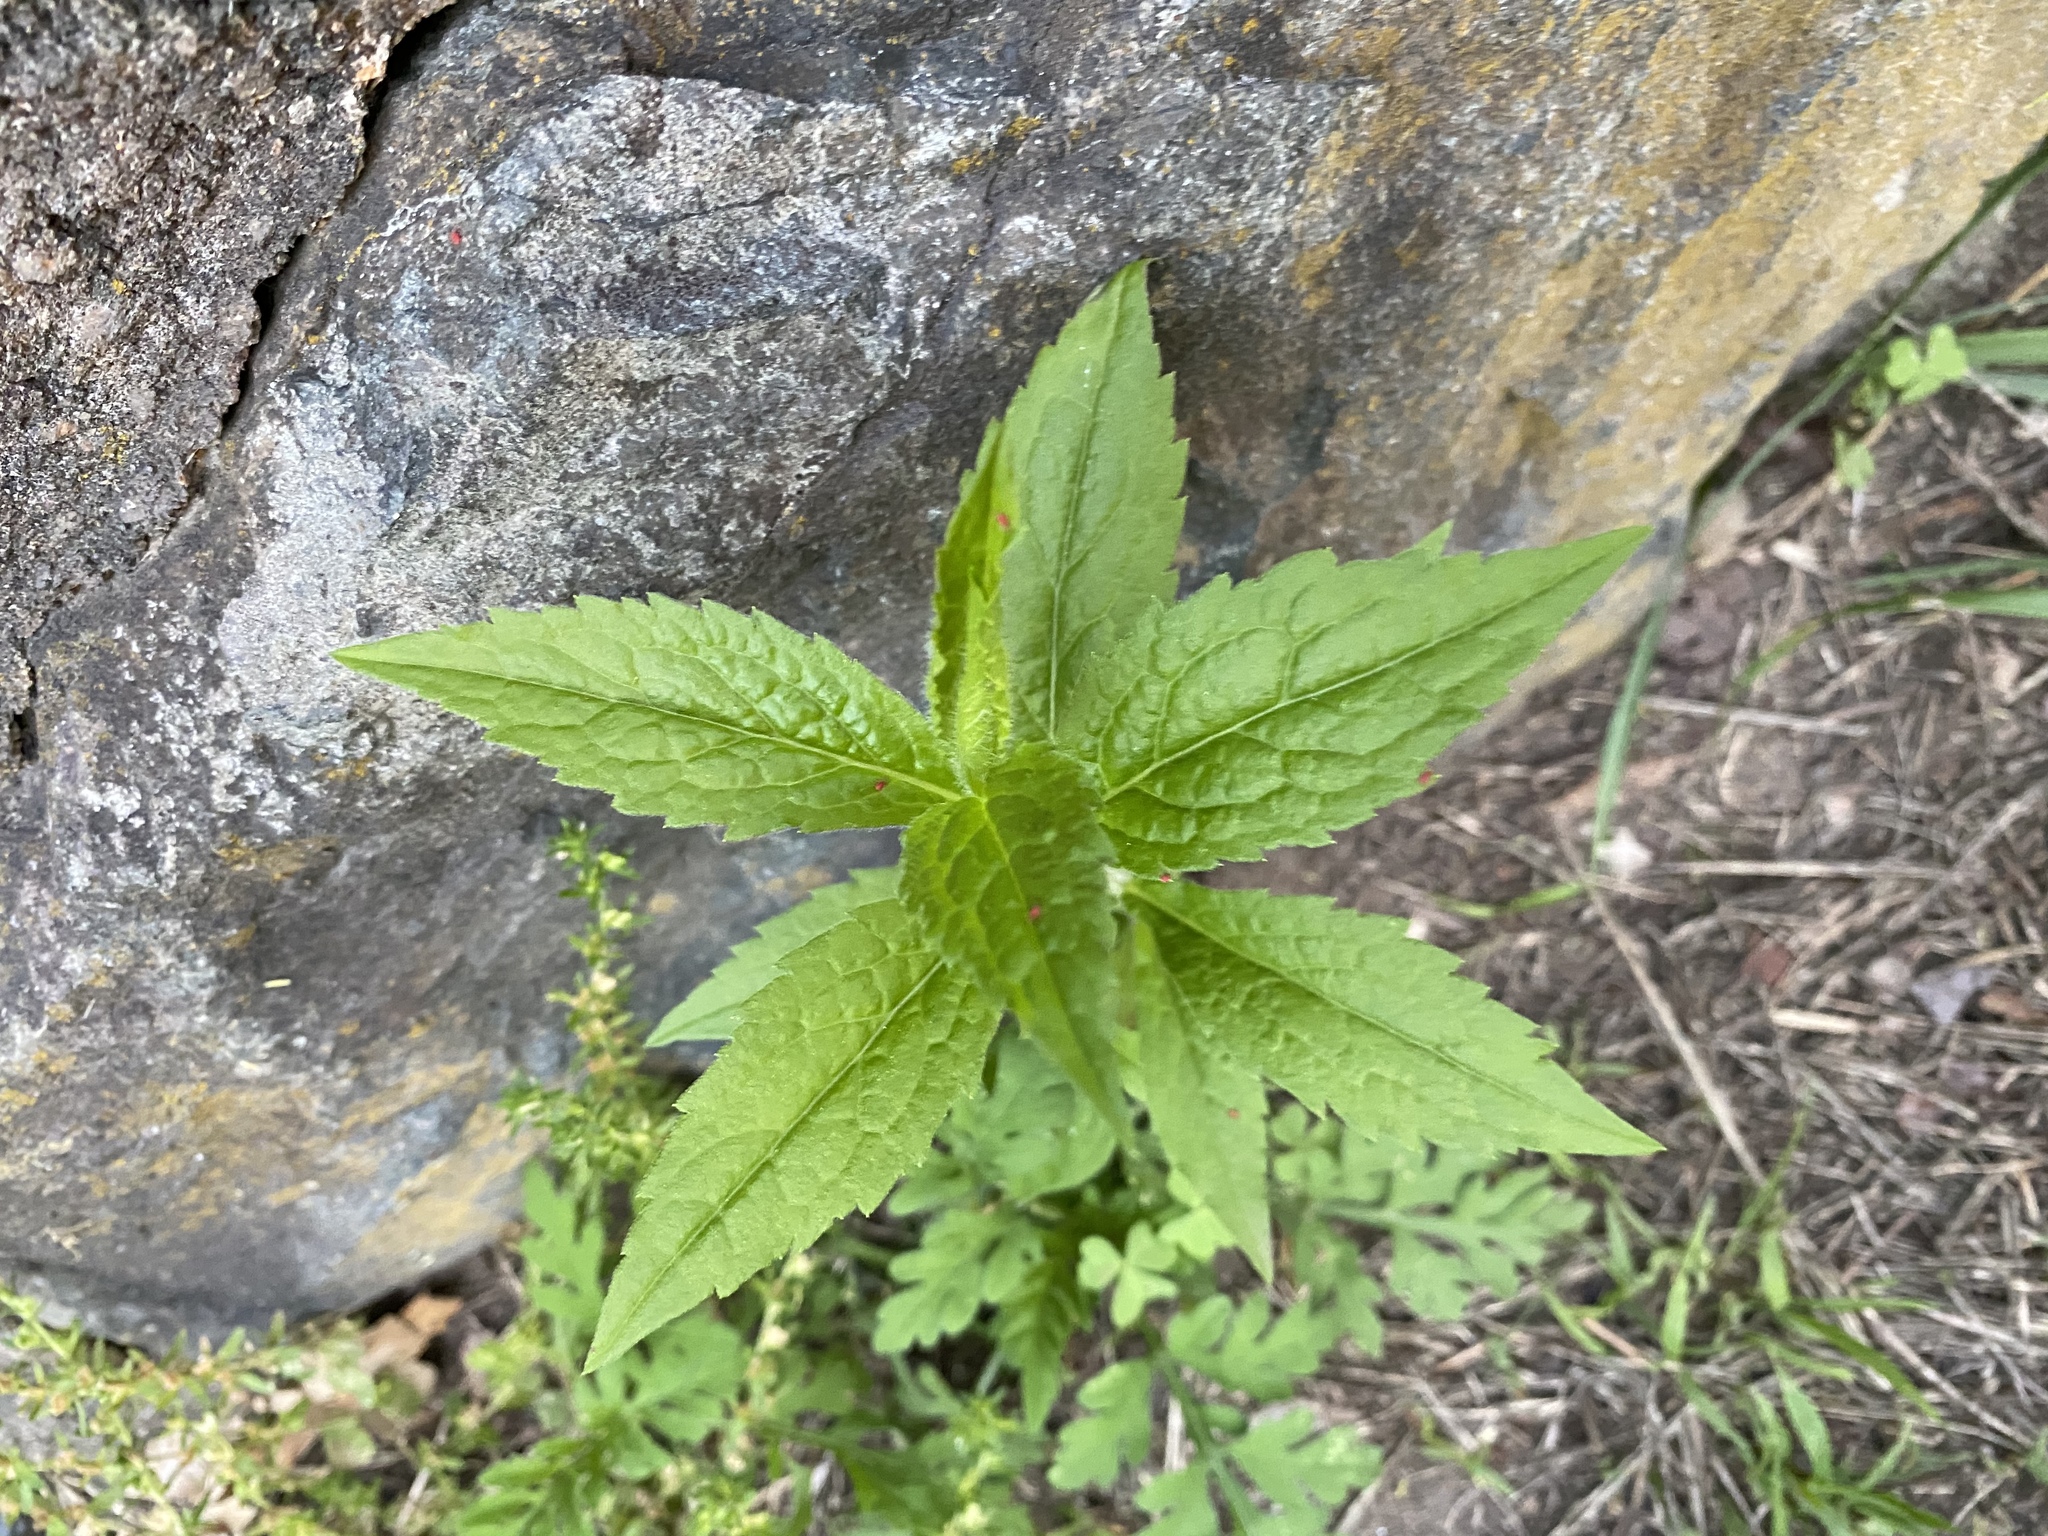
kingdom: Plantae
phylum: Tracheophyta
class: Magnoliopsida
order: Asterales
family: Asteraceae
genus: Erechtites
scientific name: Erechtites hieraciifolius
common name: American burnweed
